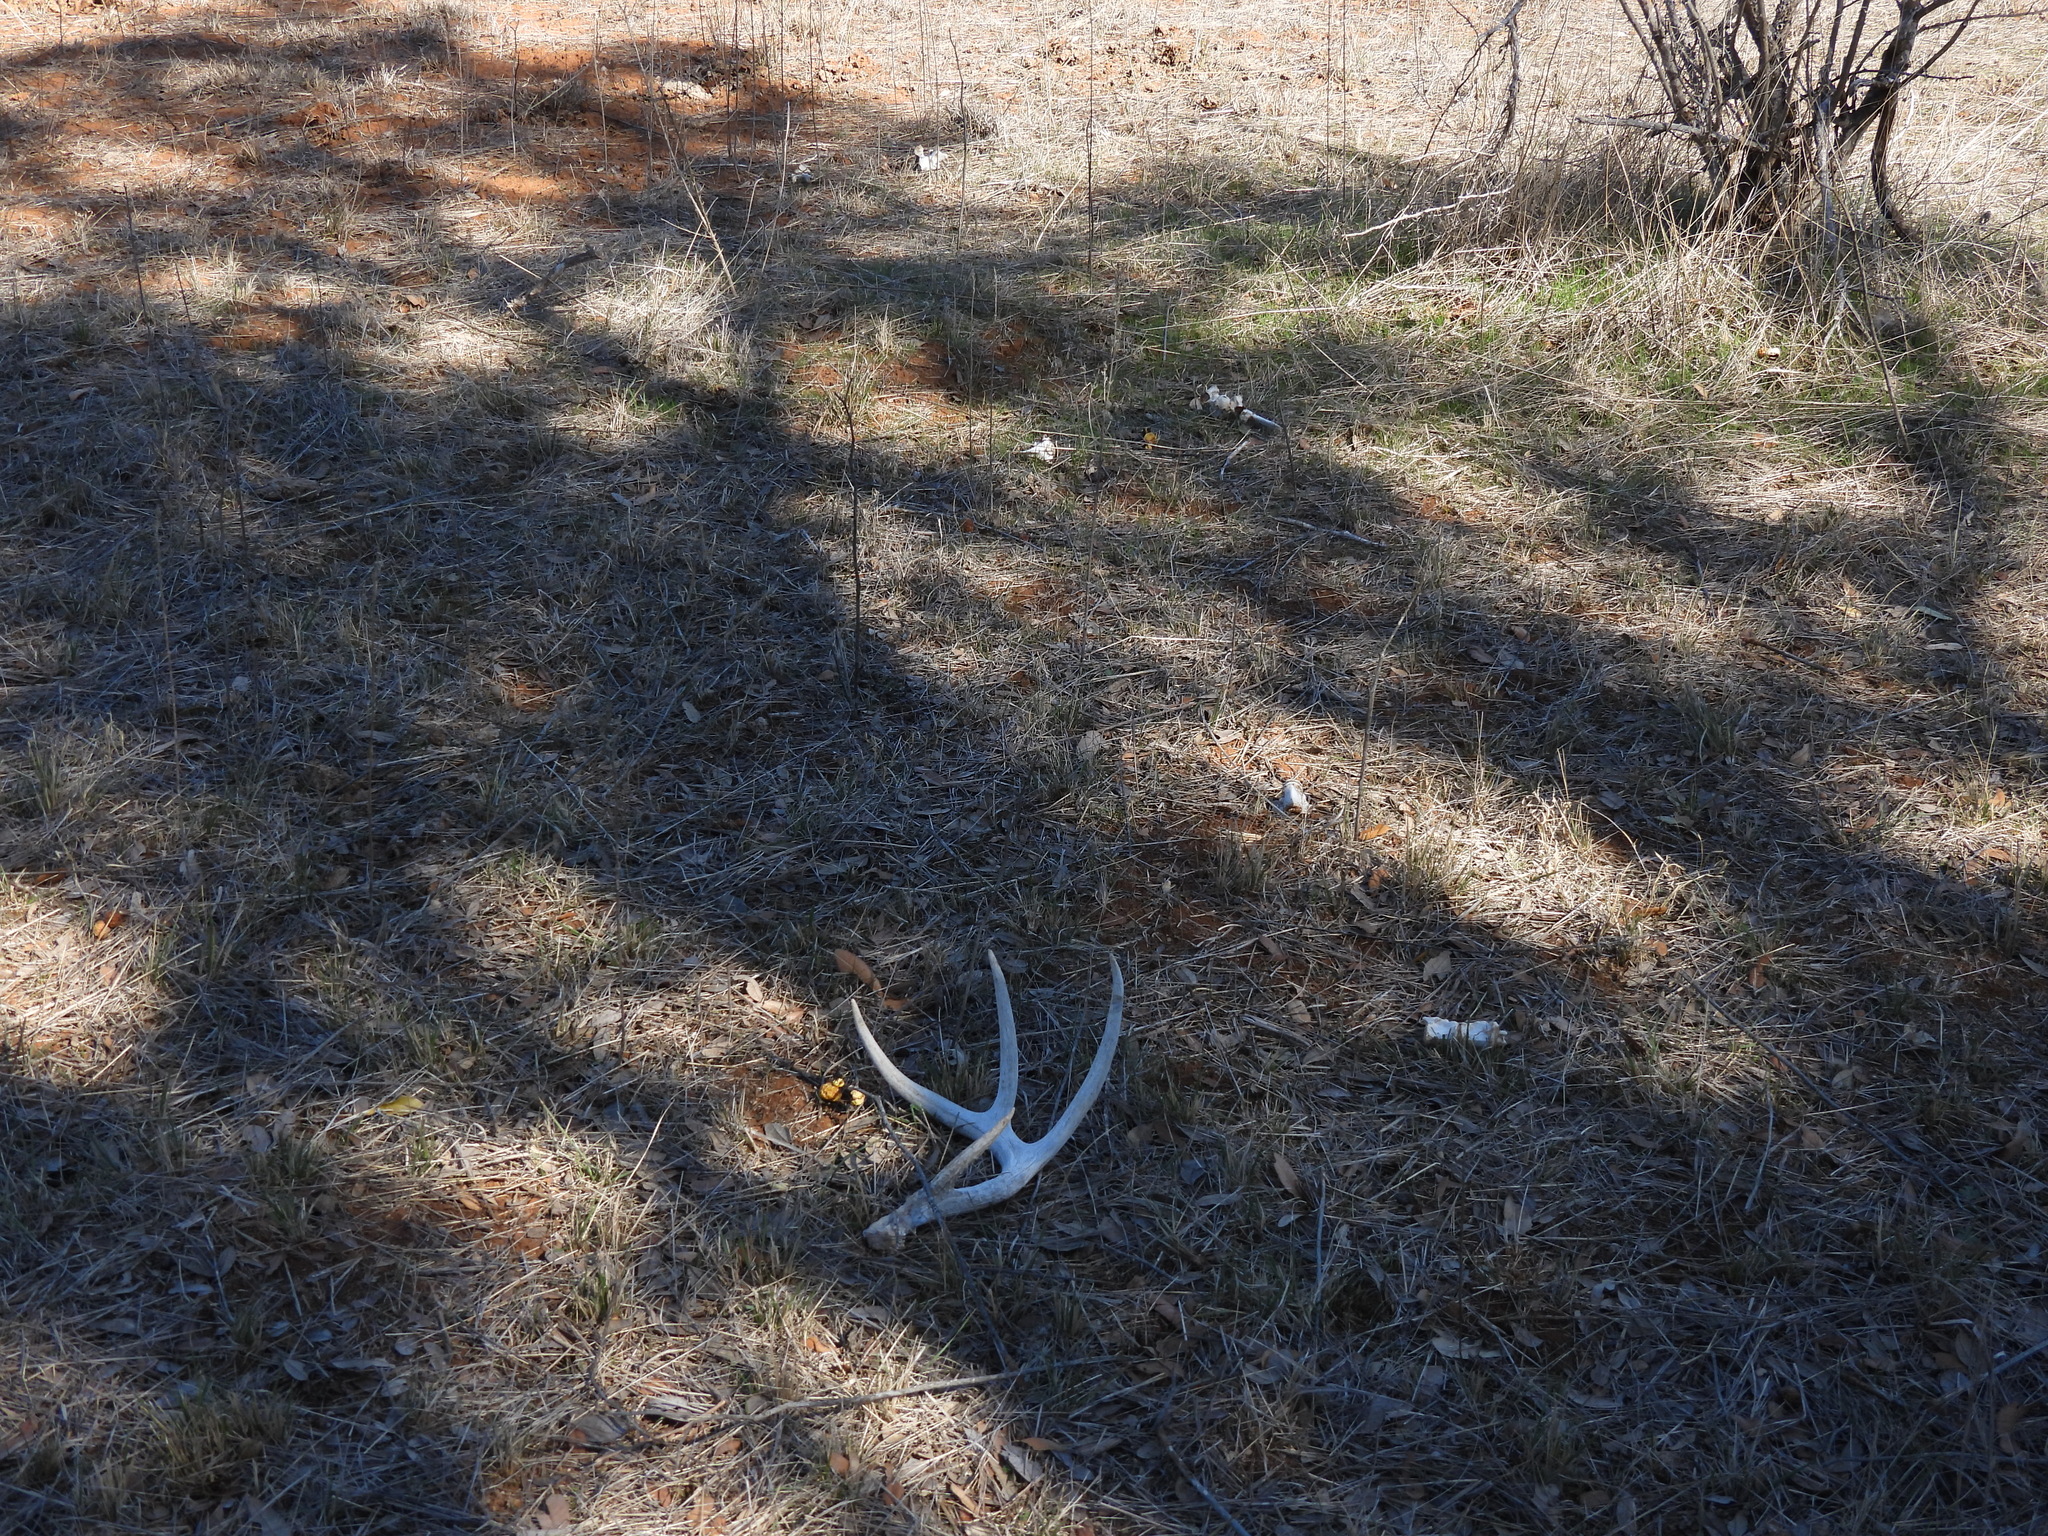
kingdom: Animalia
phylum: Chordata
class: Mammalia
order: Artiodactyla
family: Cervidae
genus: Odocoileus
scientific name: Odocoileus virginianus
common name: White-tailed deer
